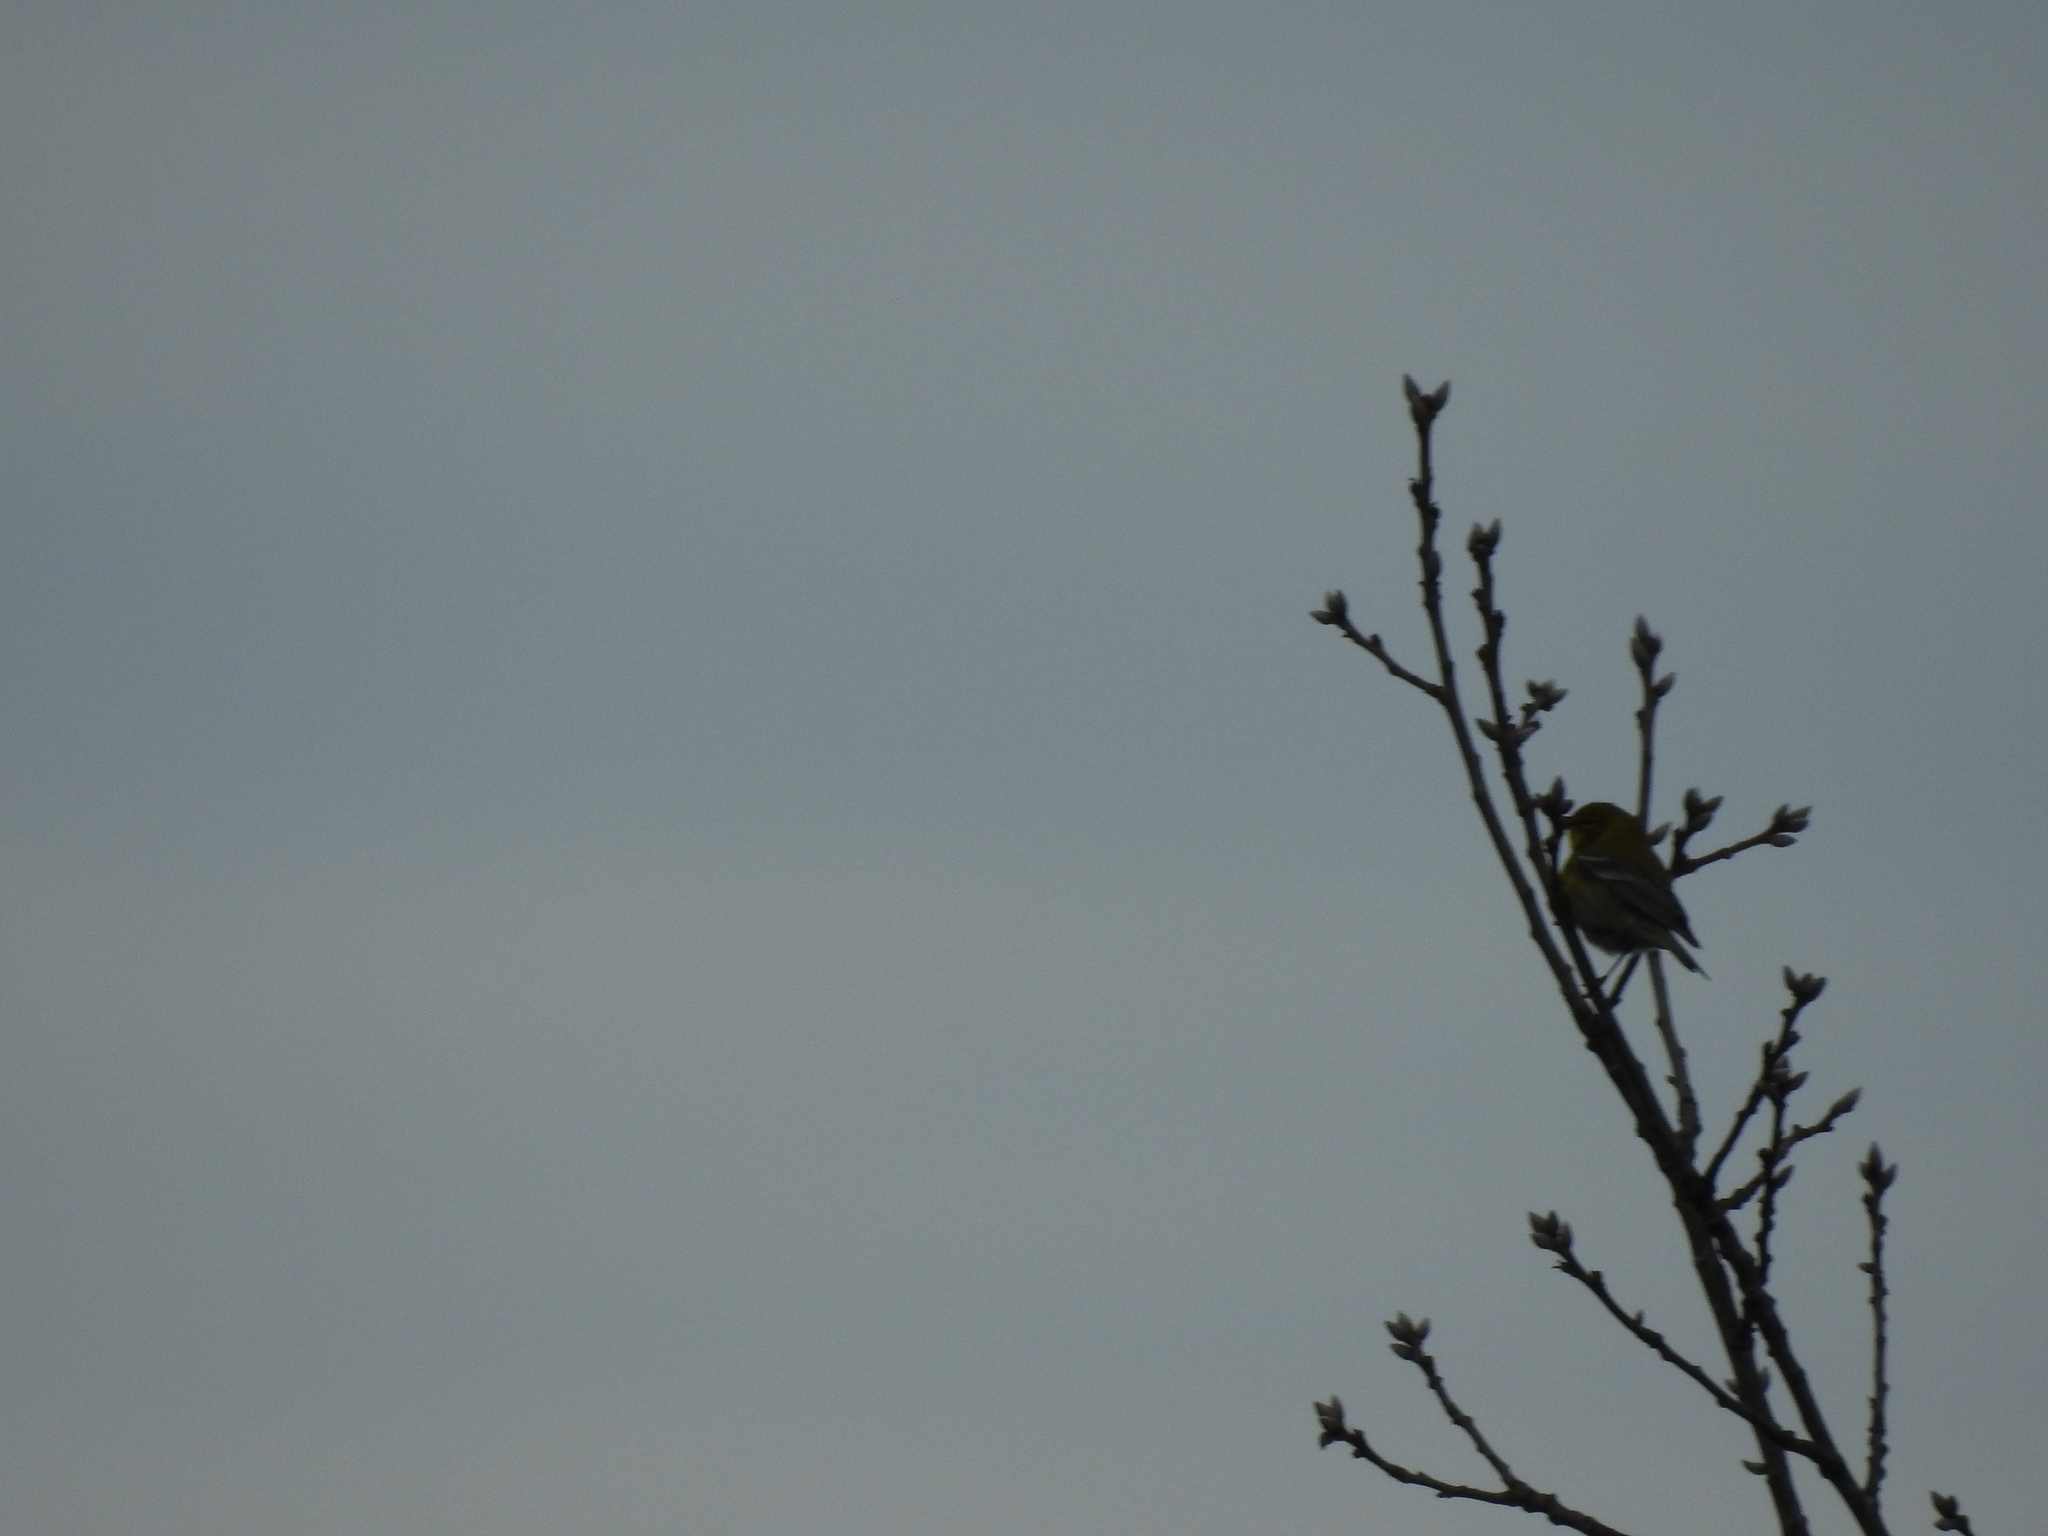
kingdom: Animalia
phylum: Chordata
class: Aves
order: Passeriformes
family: Parulidae
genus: Setophaga
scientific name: Setophaga pinus
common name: Pine warbler
